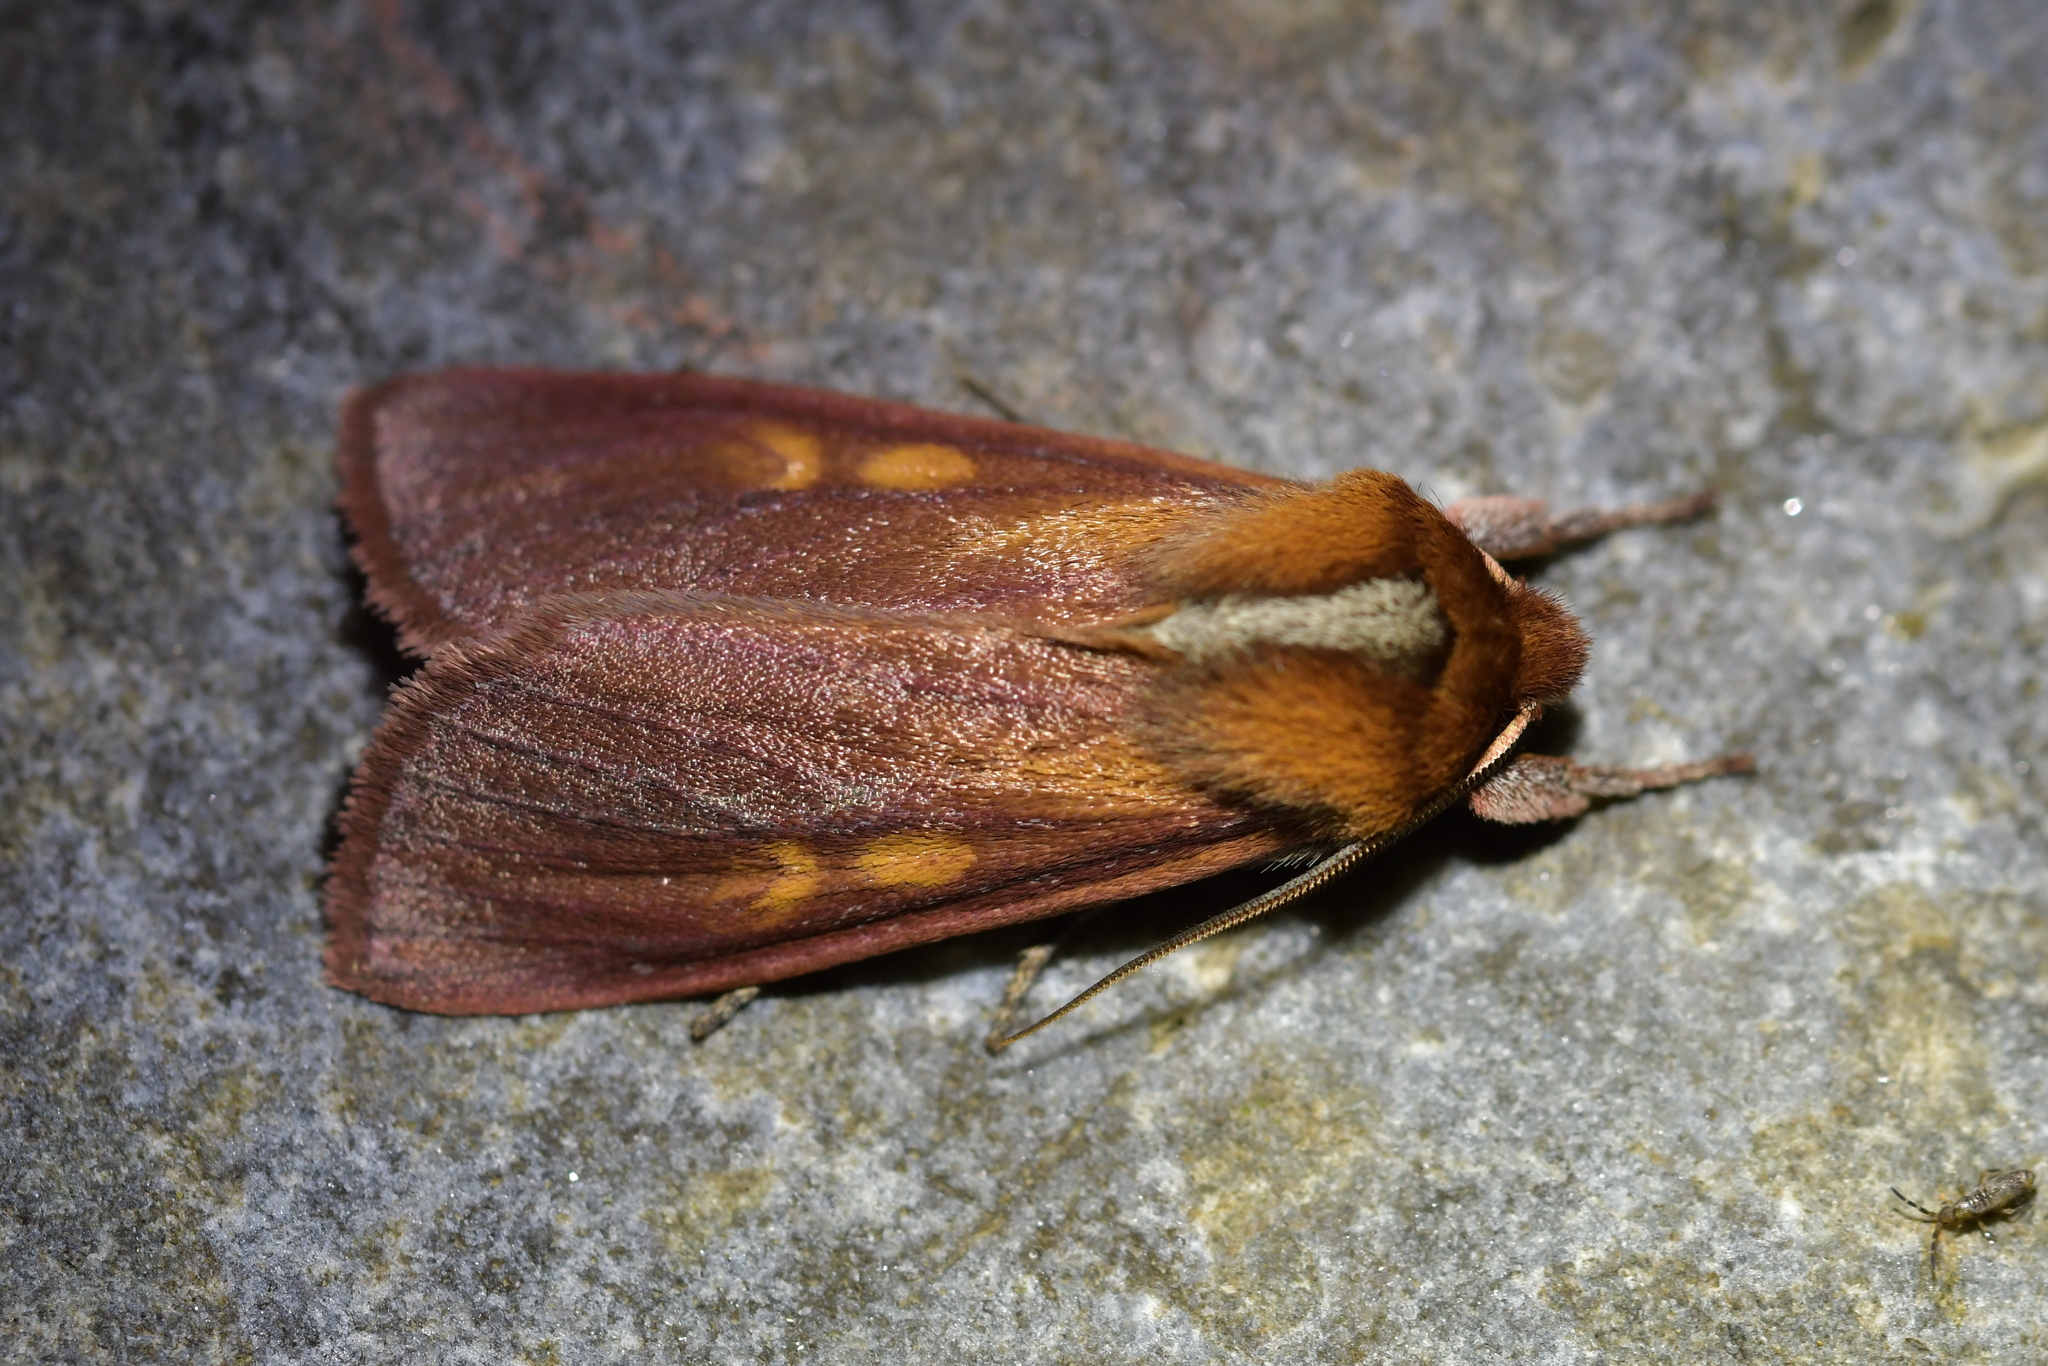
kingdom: Animalia
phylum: Arthropoda
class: Insecta
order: Lepidoptera
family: Noctuidae
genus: Ichneutica
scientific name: Ichneutica
